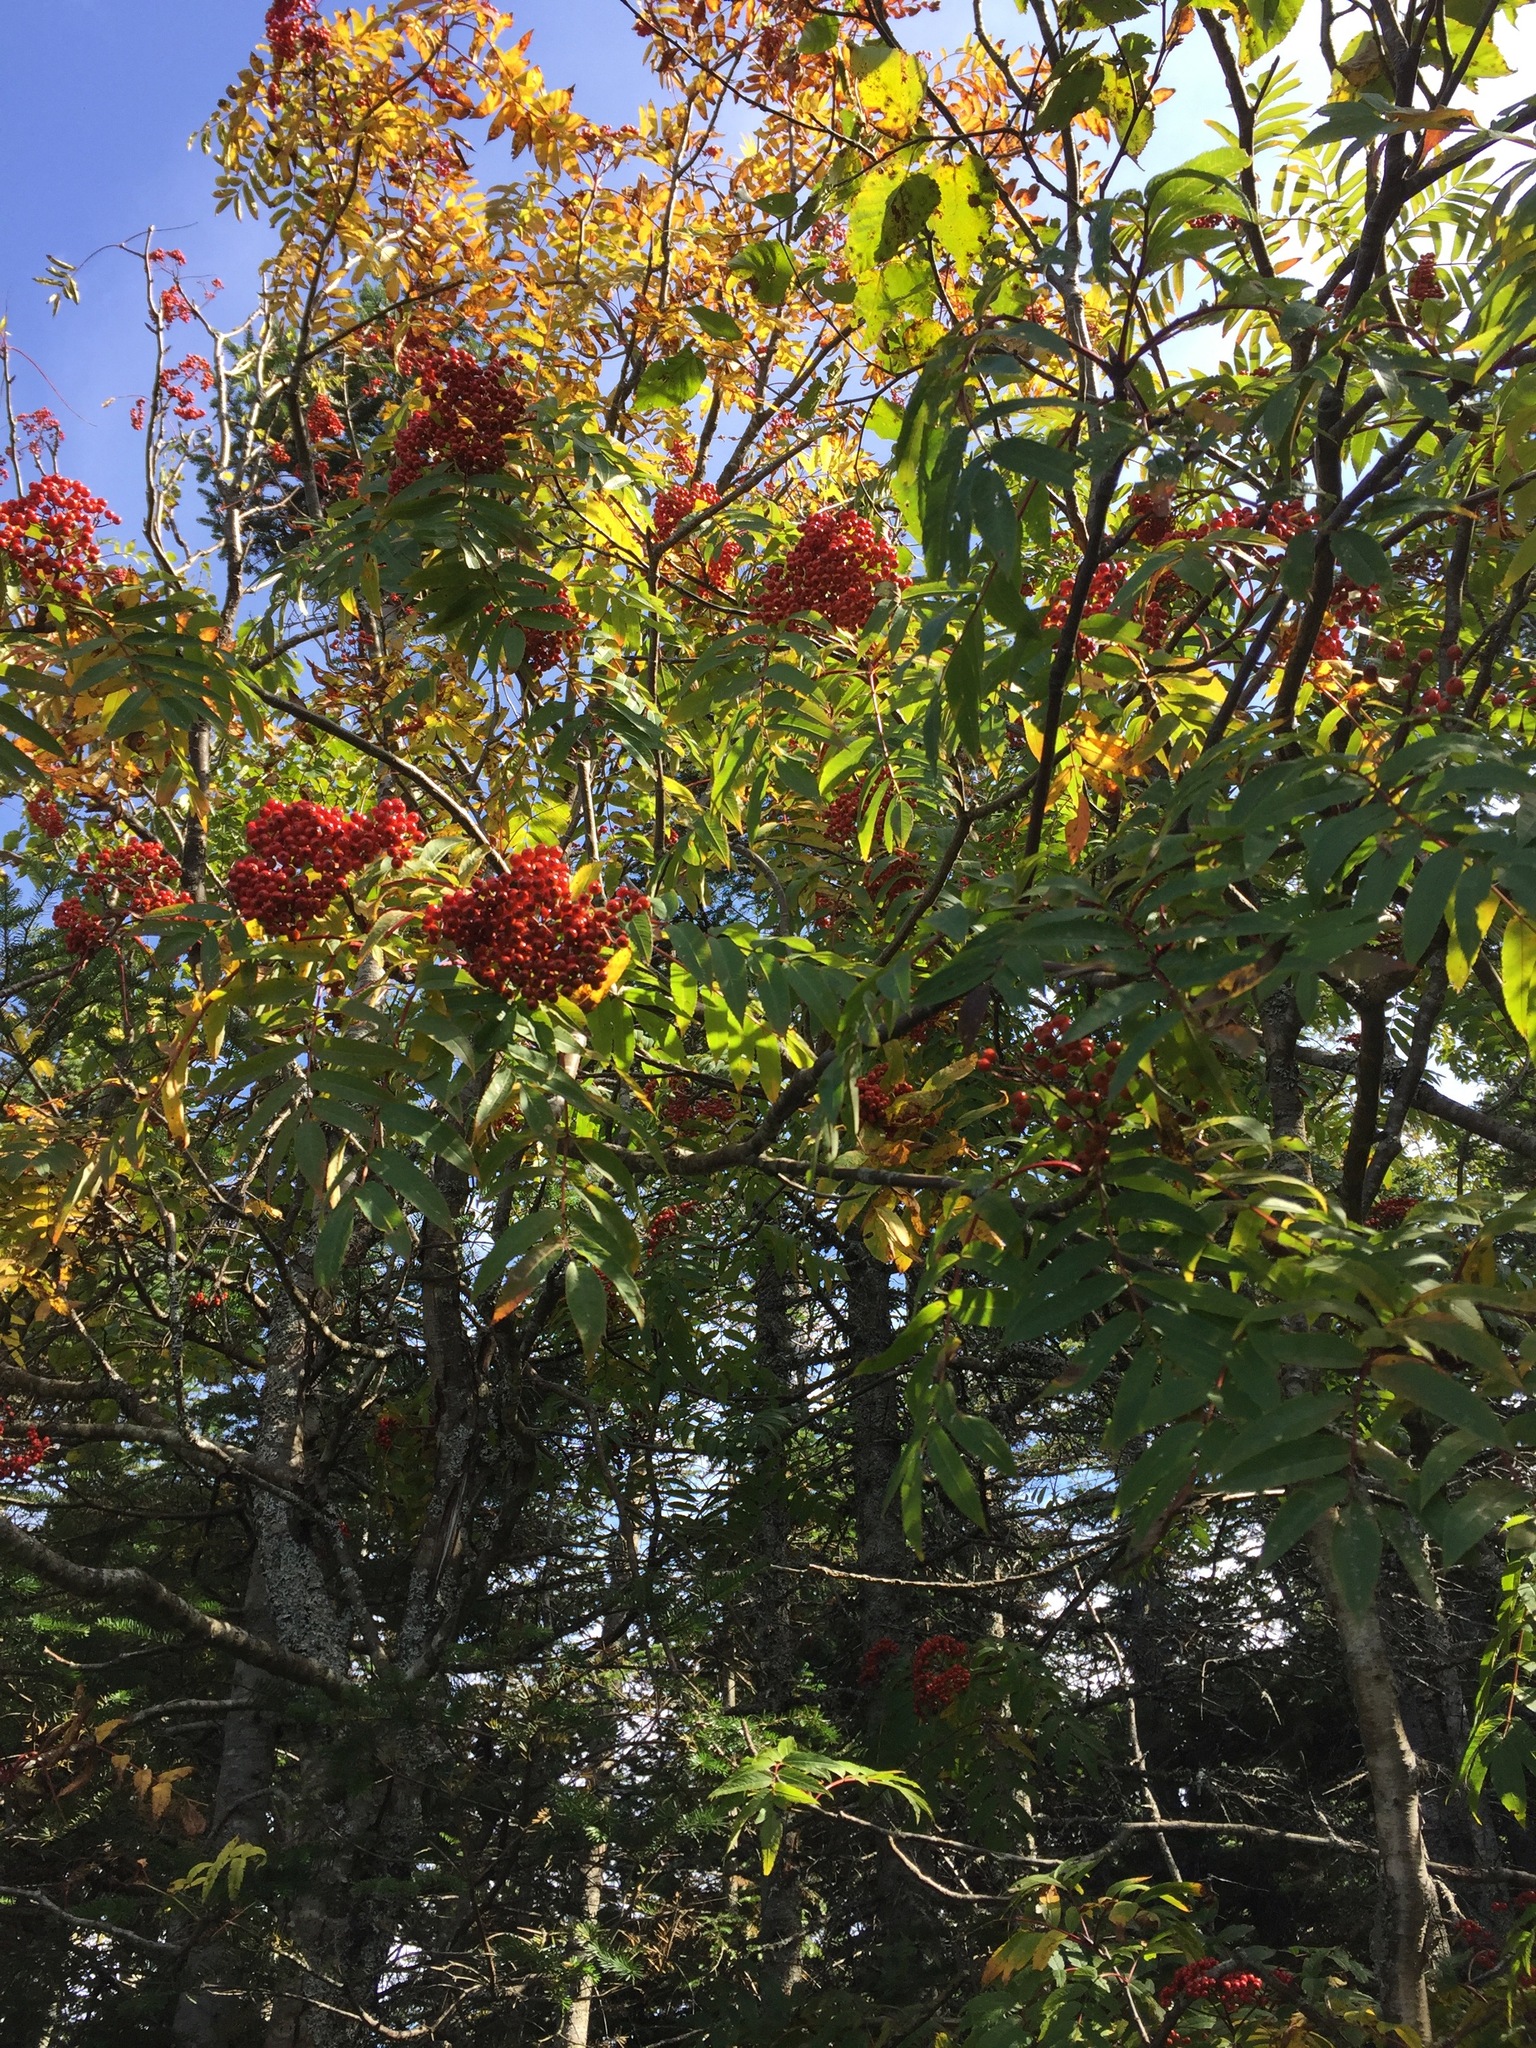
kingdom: Plantae
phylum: Tracheophyta
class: Magnoliopsida
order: Rosales
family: Rosaceae
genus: Sorbus
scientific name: Sorbus americana
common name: American mountain-ash
